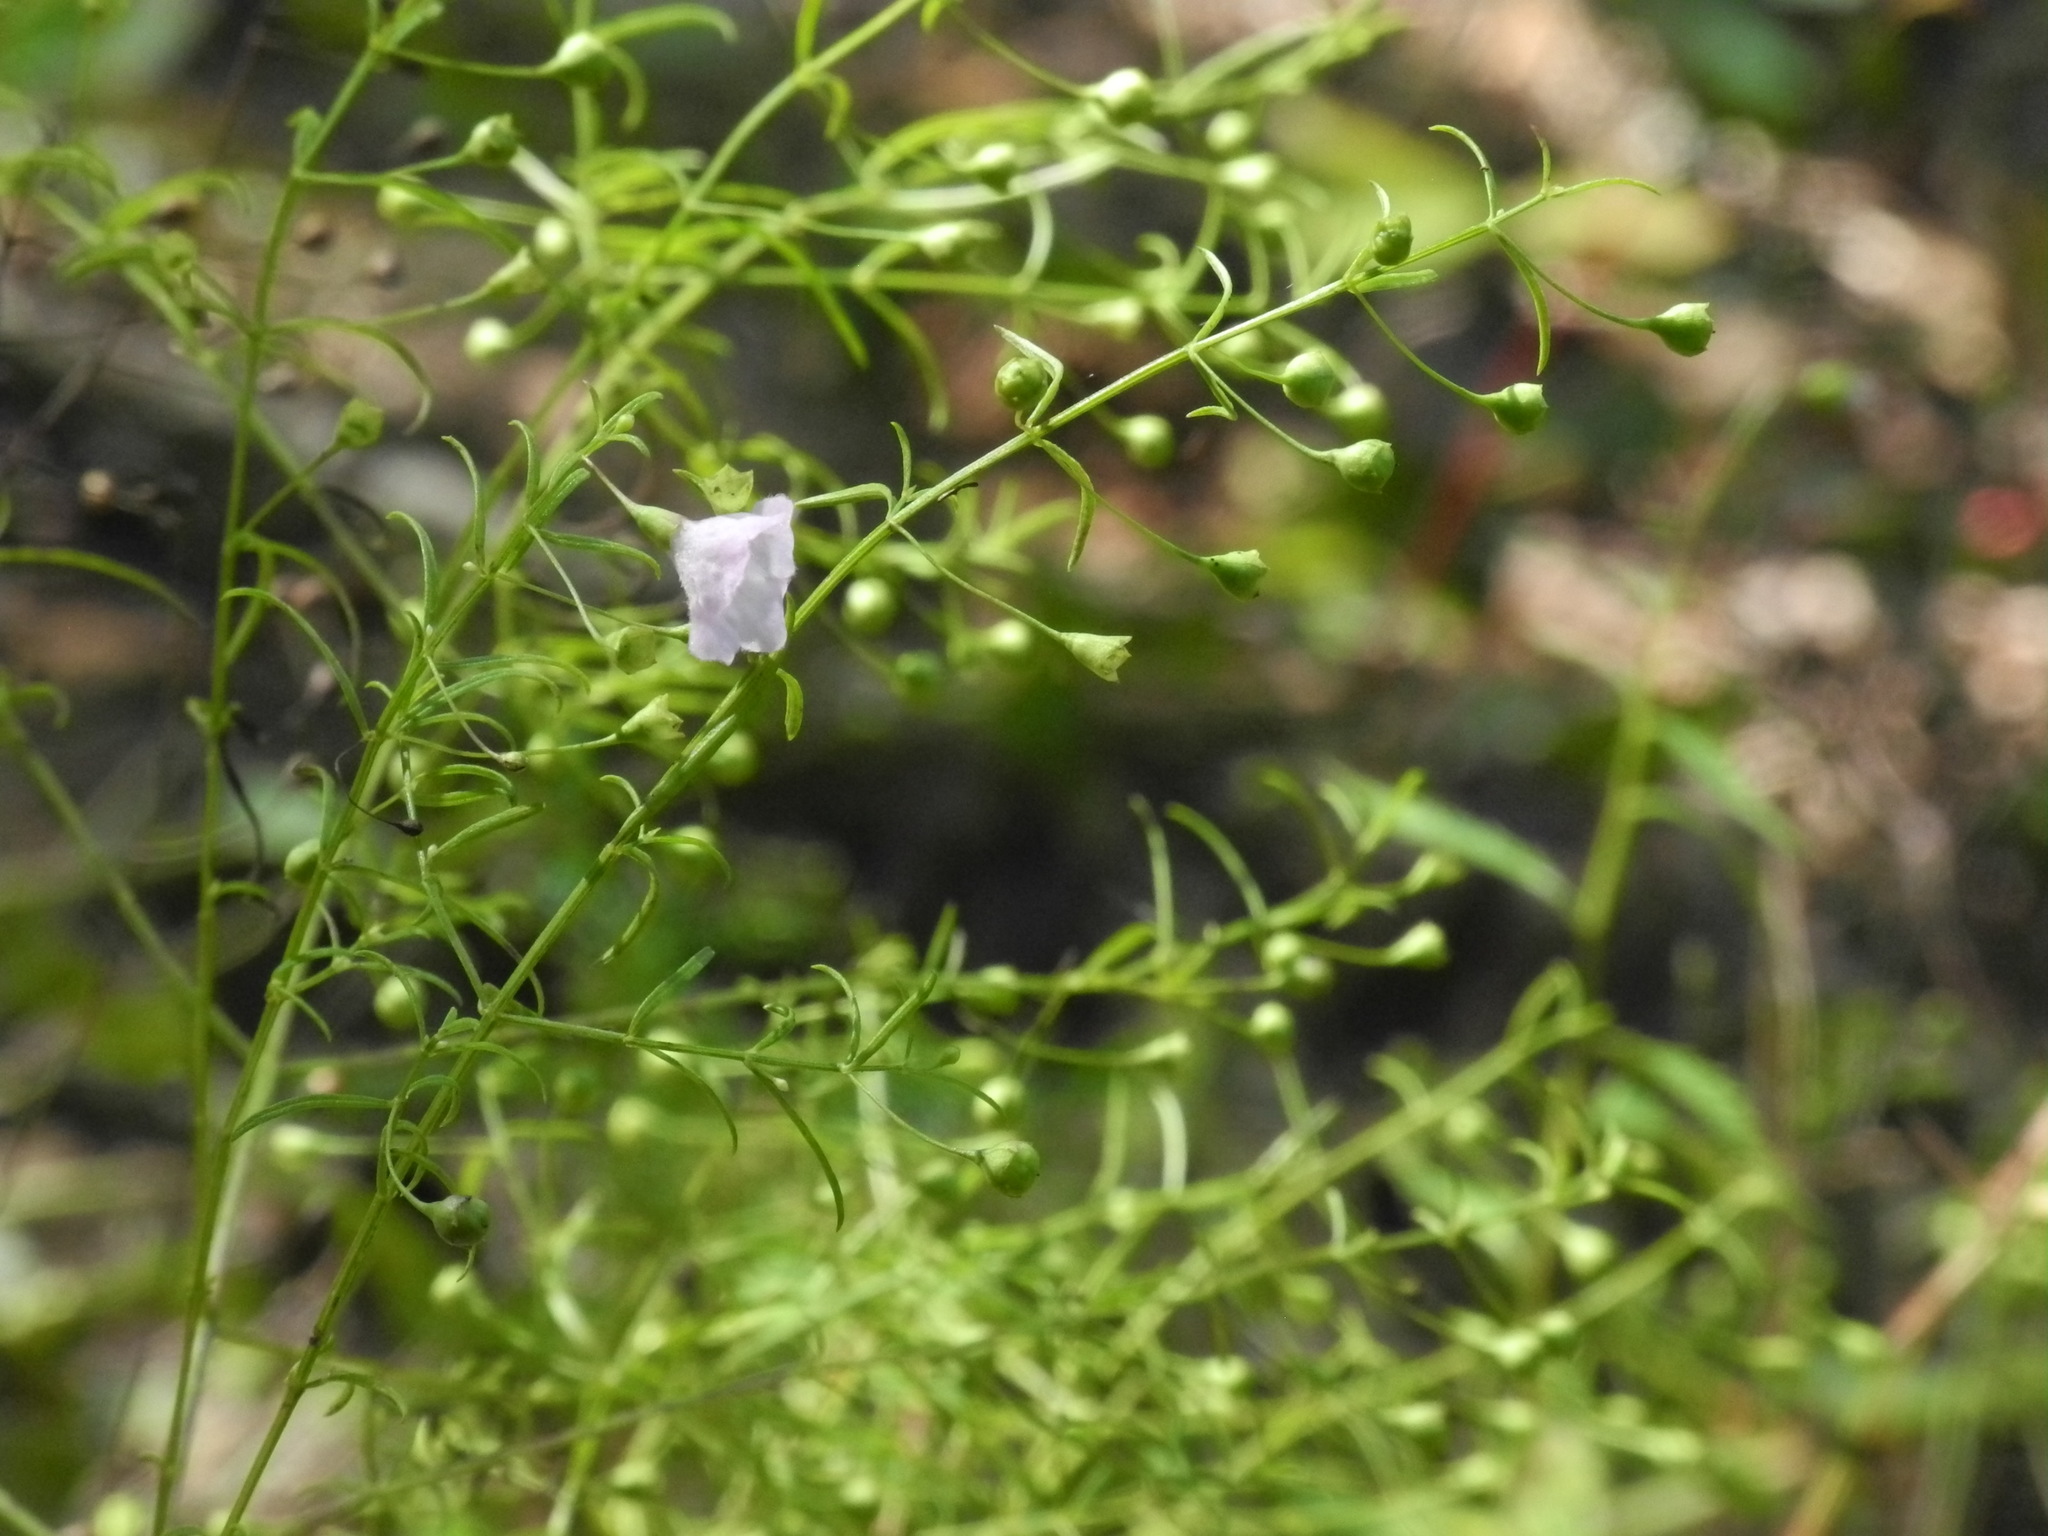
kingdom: Plantae
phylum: Tracheophyta
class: Magnoliopsida
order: Lamiales
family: Orobanchaceae
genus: Agalinis
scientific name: Agalinis tenuifolia
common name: Slender agalinis
